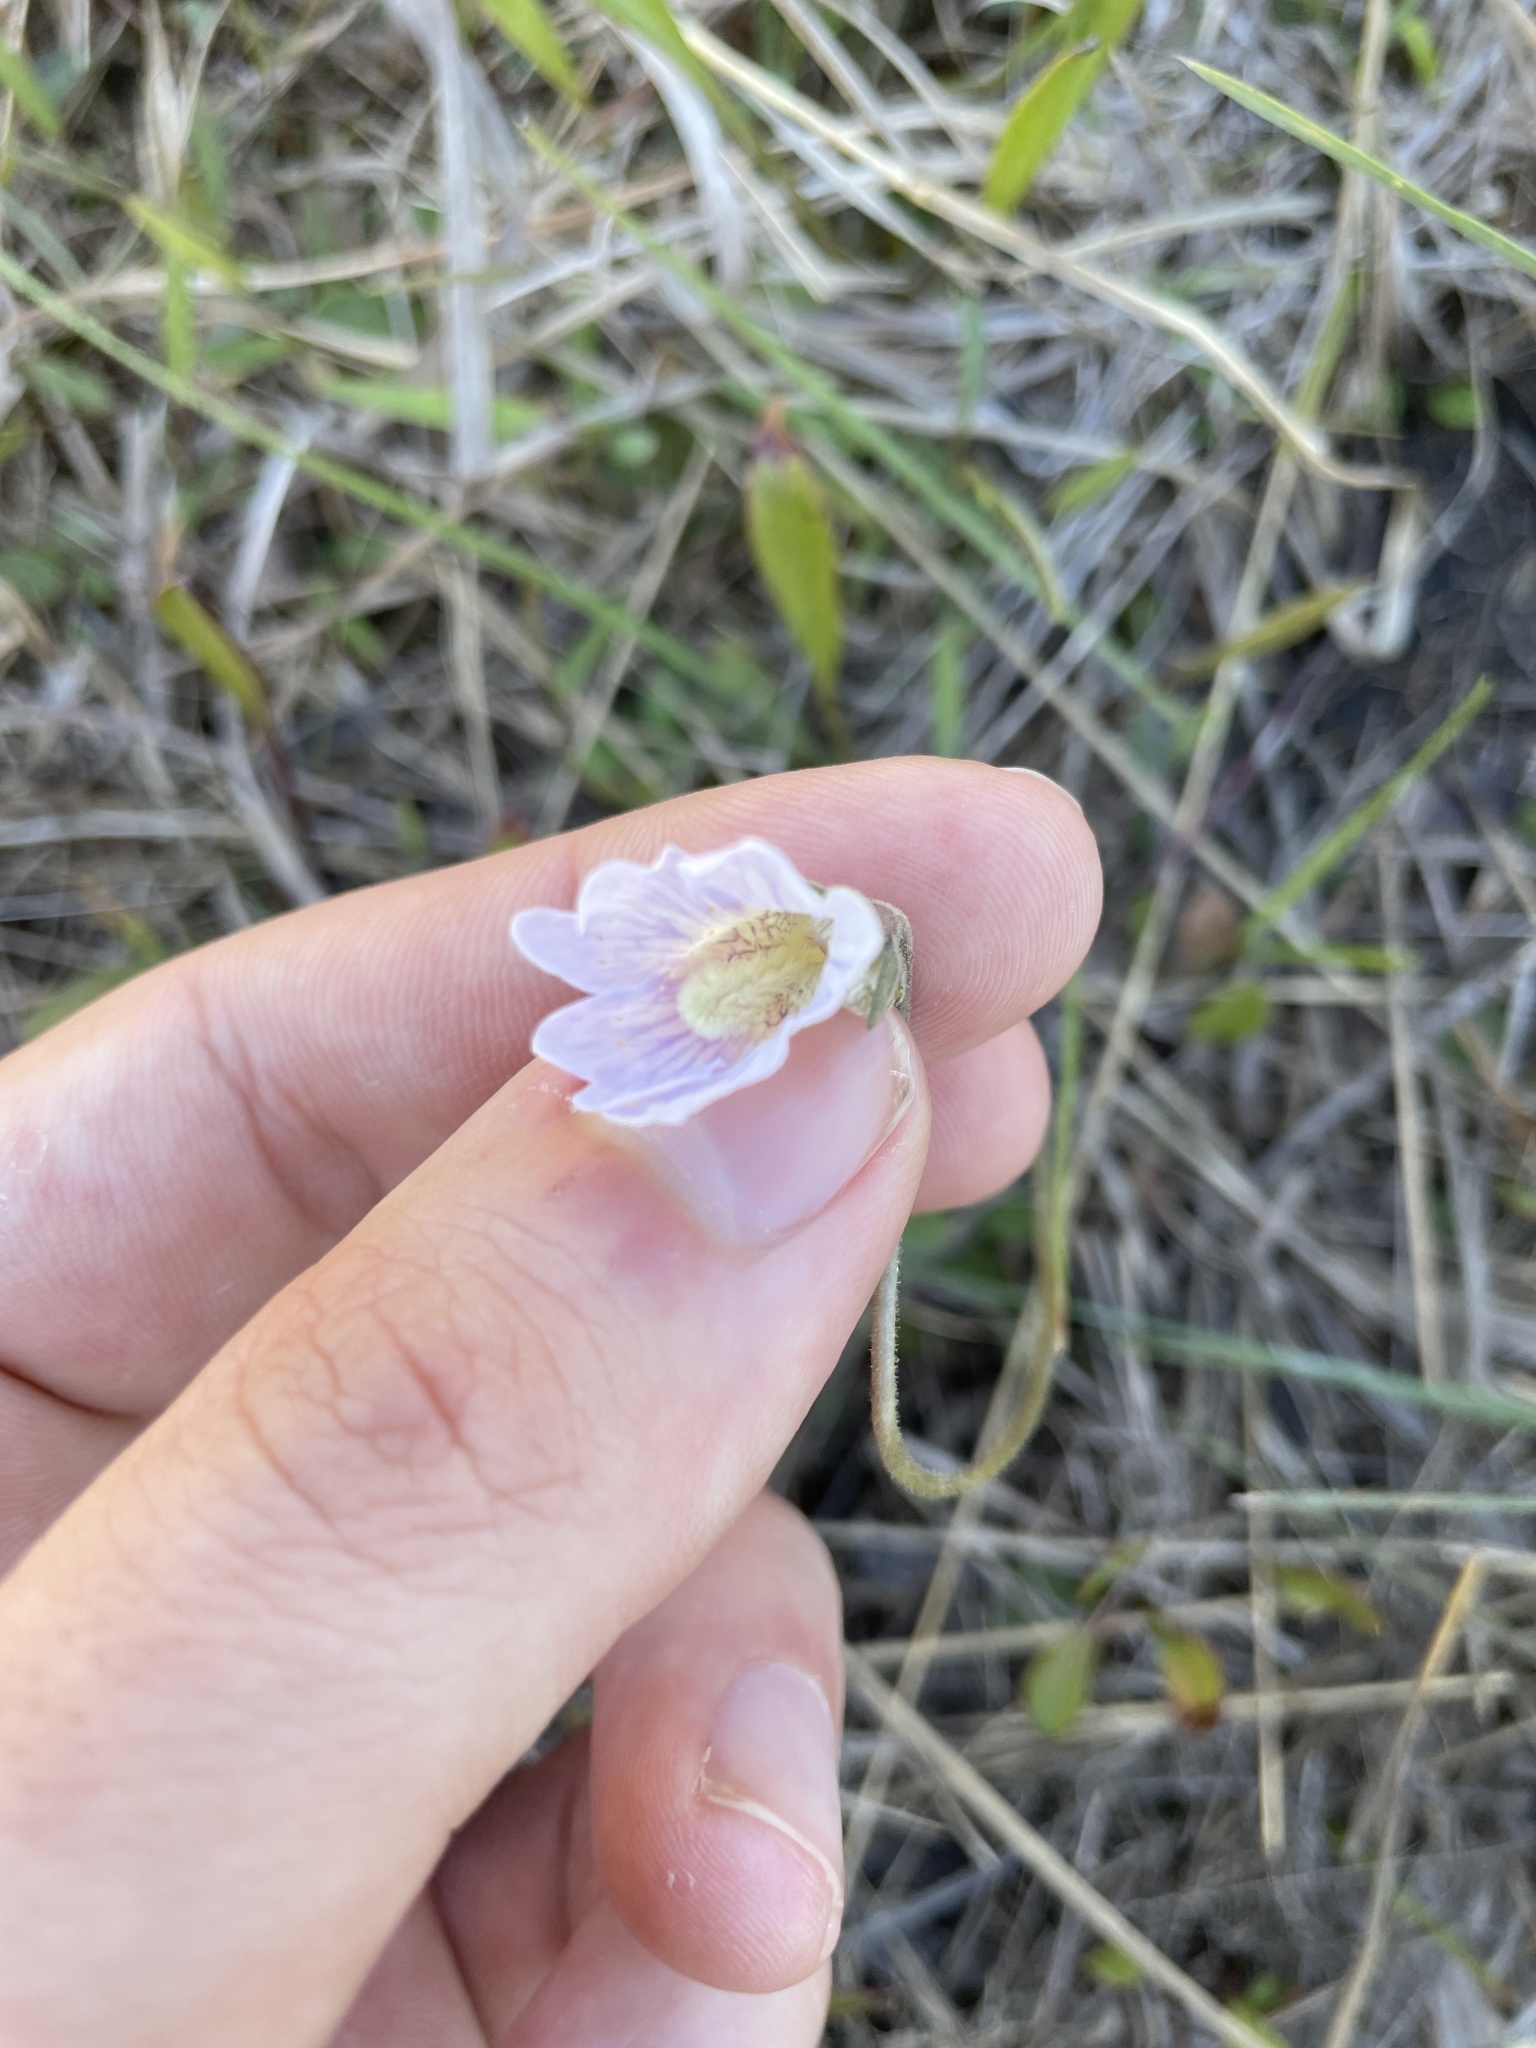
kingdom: Plantae
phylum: Tracheophyta
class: Magnoliopsida
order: Lamiales
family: Lentibulariaceae
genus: Pinguicula
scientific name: Pinguicula caerulea
